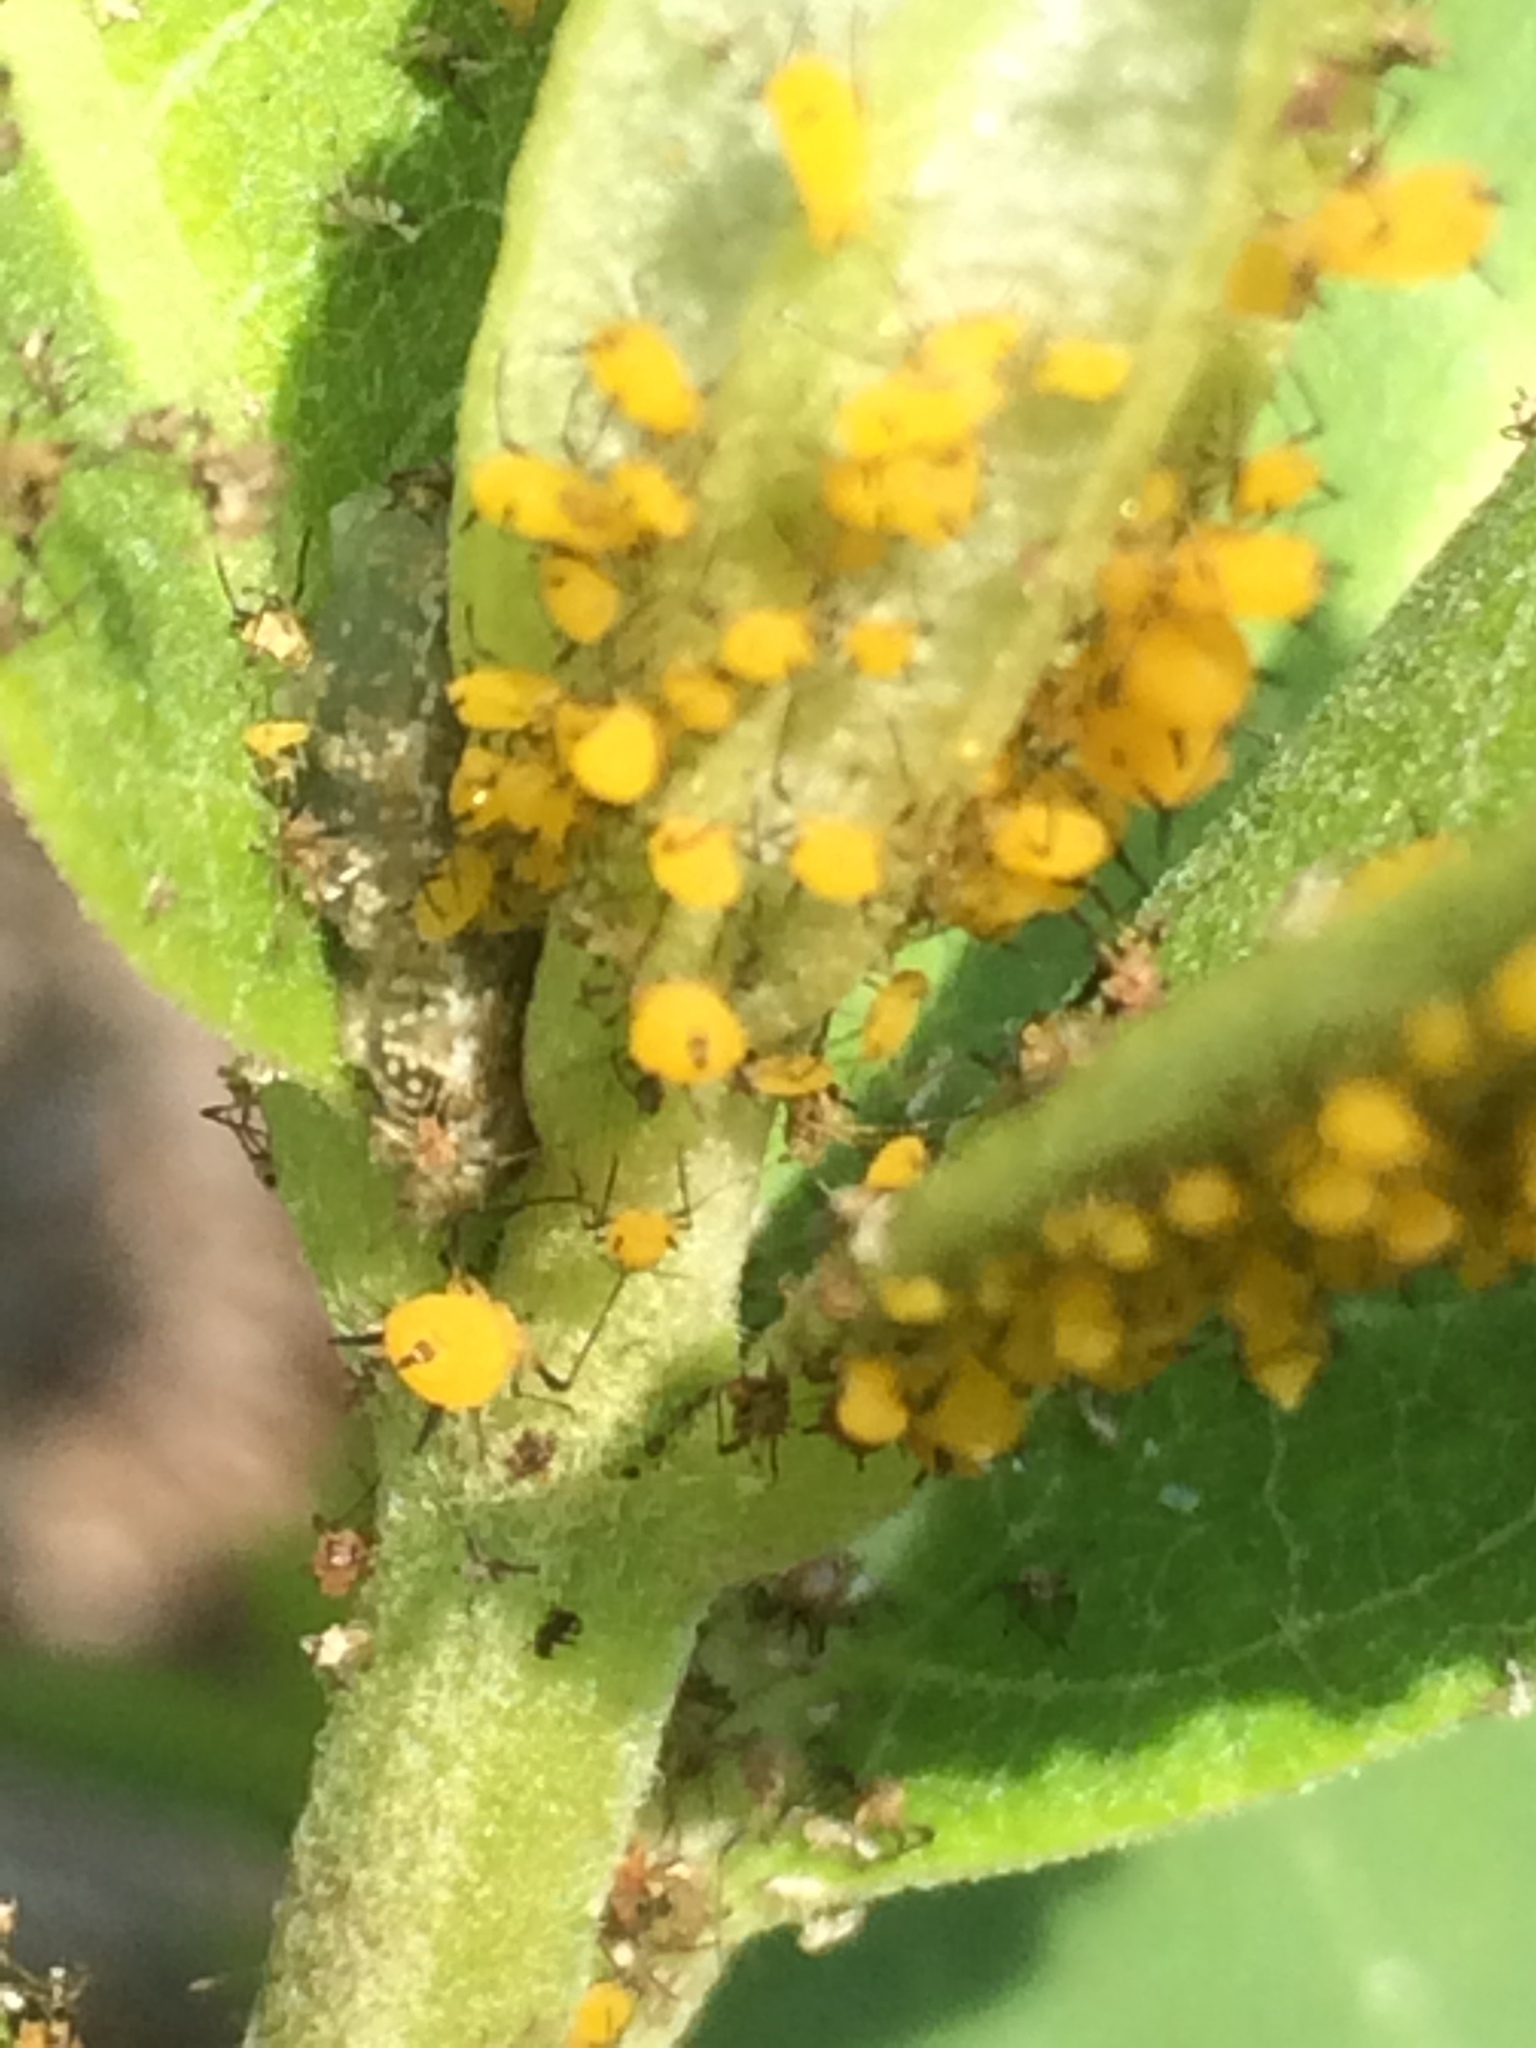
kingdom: Animalia
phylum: Arthropoda
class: Insecta
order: Hemiptera
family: Aphididae
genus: Aphis
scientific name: Aphis nerii
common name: Oleander aphid
